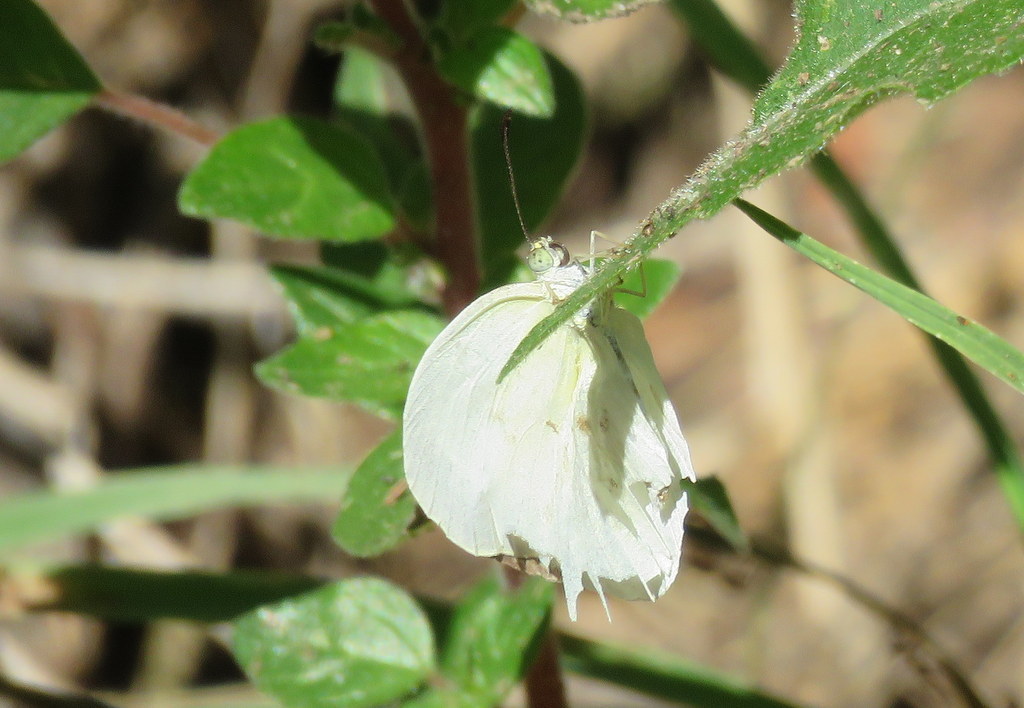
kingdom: Animalia
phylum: Arthropoda
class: Insecta
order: Lepidoptera
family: Pieridae
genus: Abaeis
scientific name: Abaeis albula
